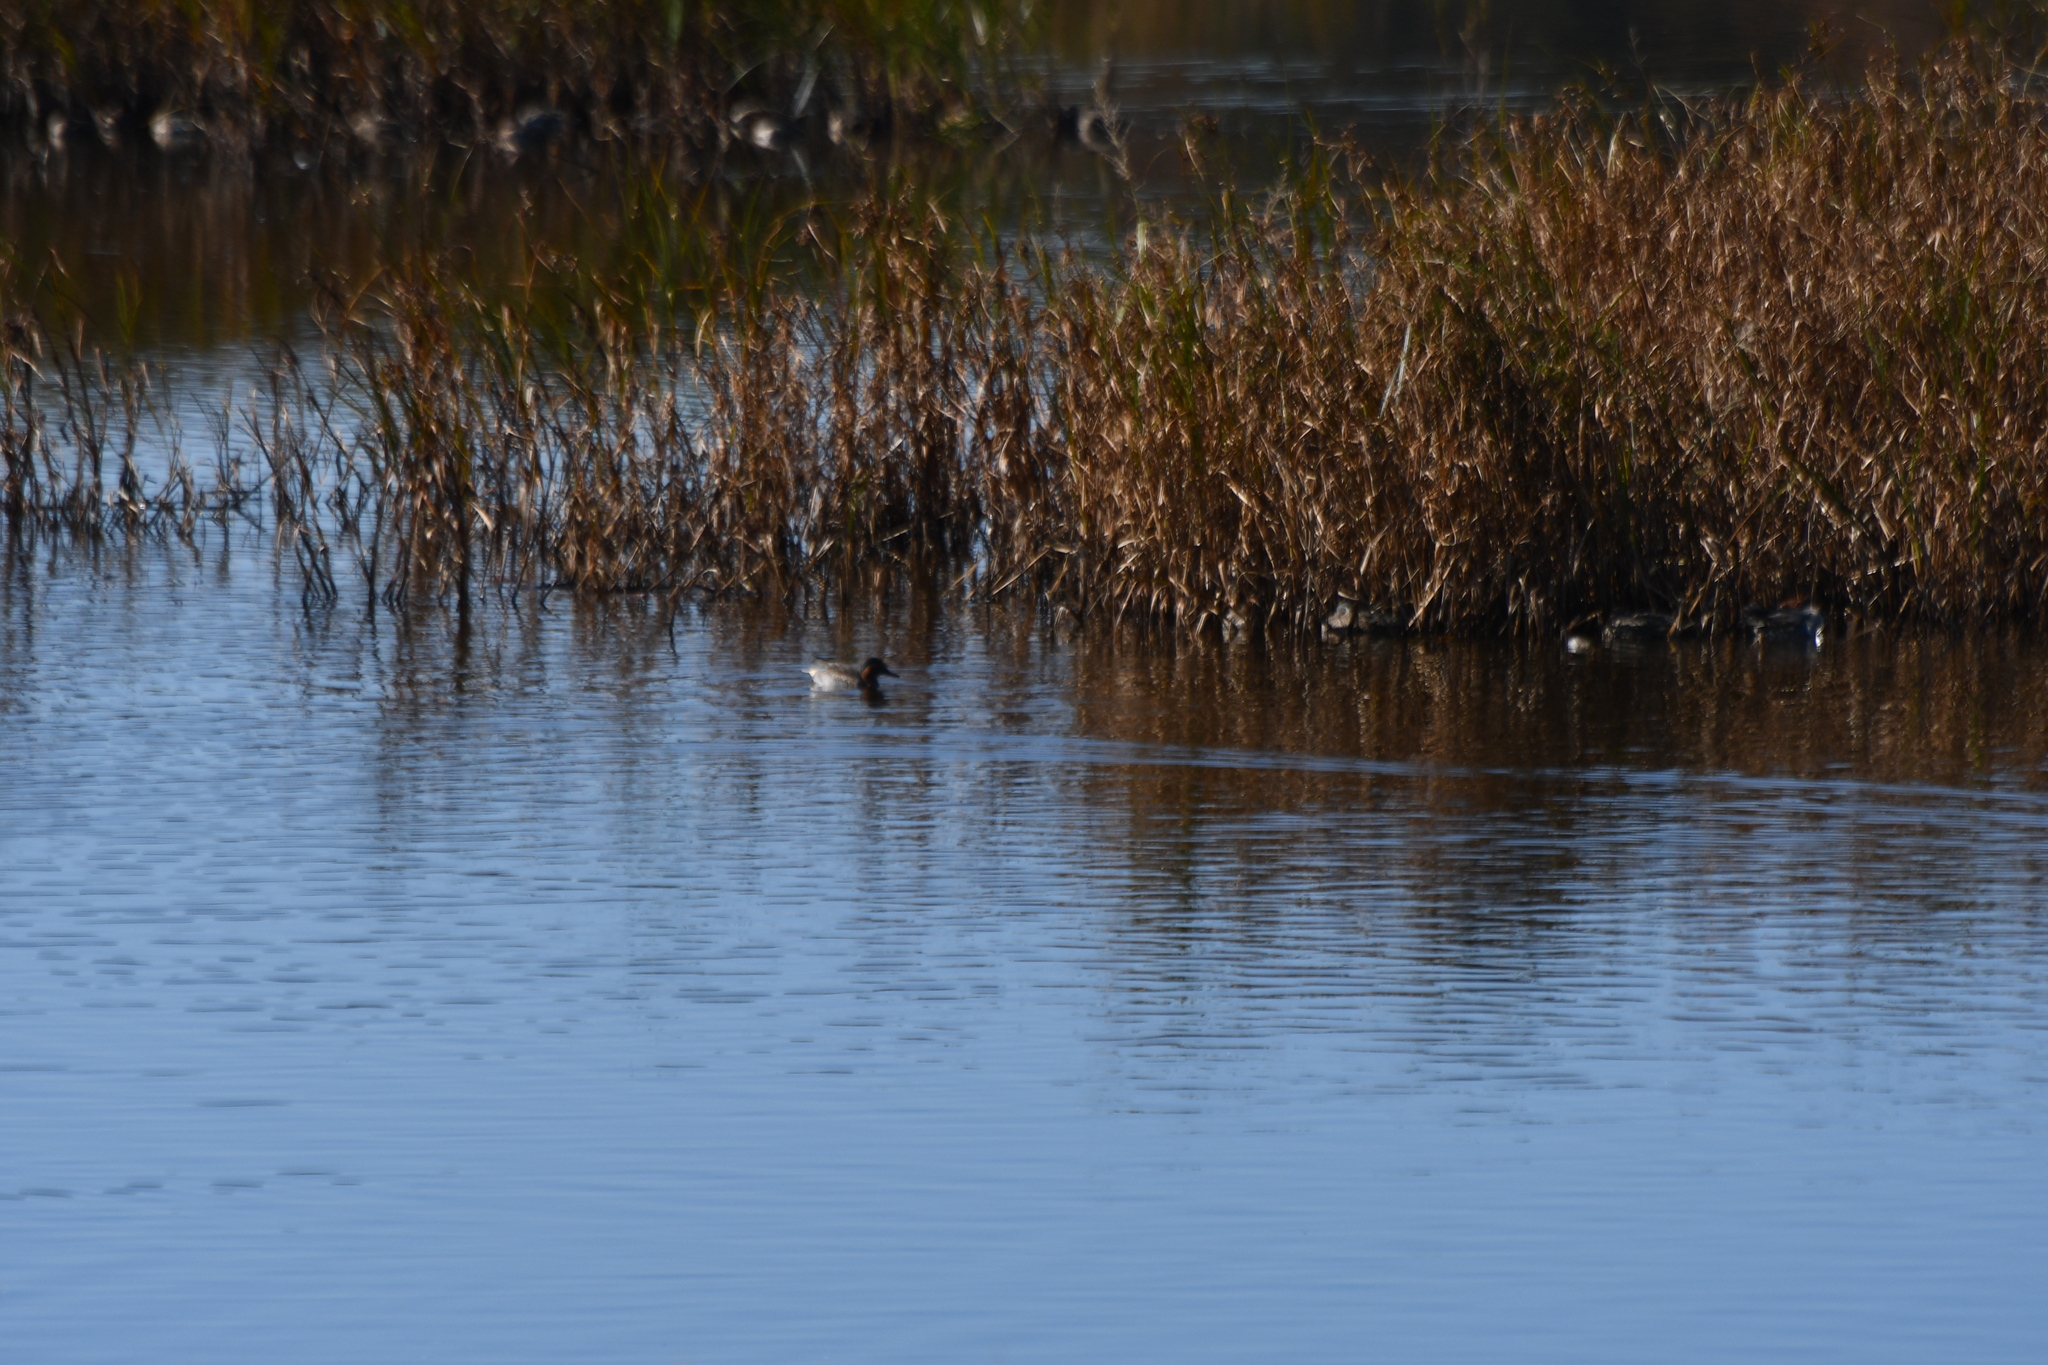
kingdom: Animalia
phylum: Chordata
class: Aves
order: Anseriformes
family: Anatidae
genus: Anas
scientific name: Anas crecca
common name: Eurasian teal
